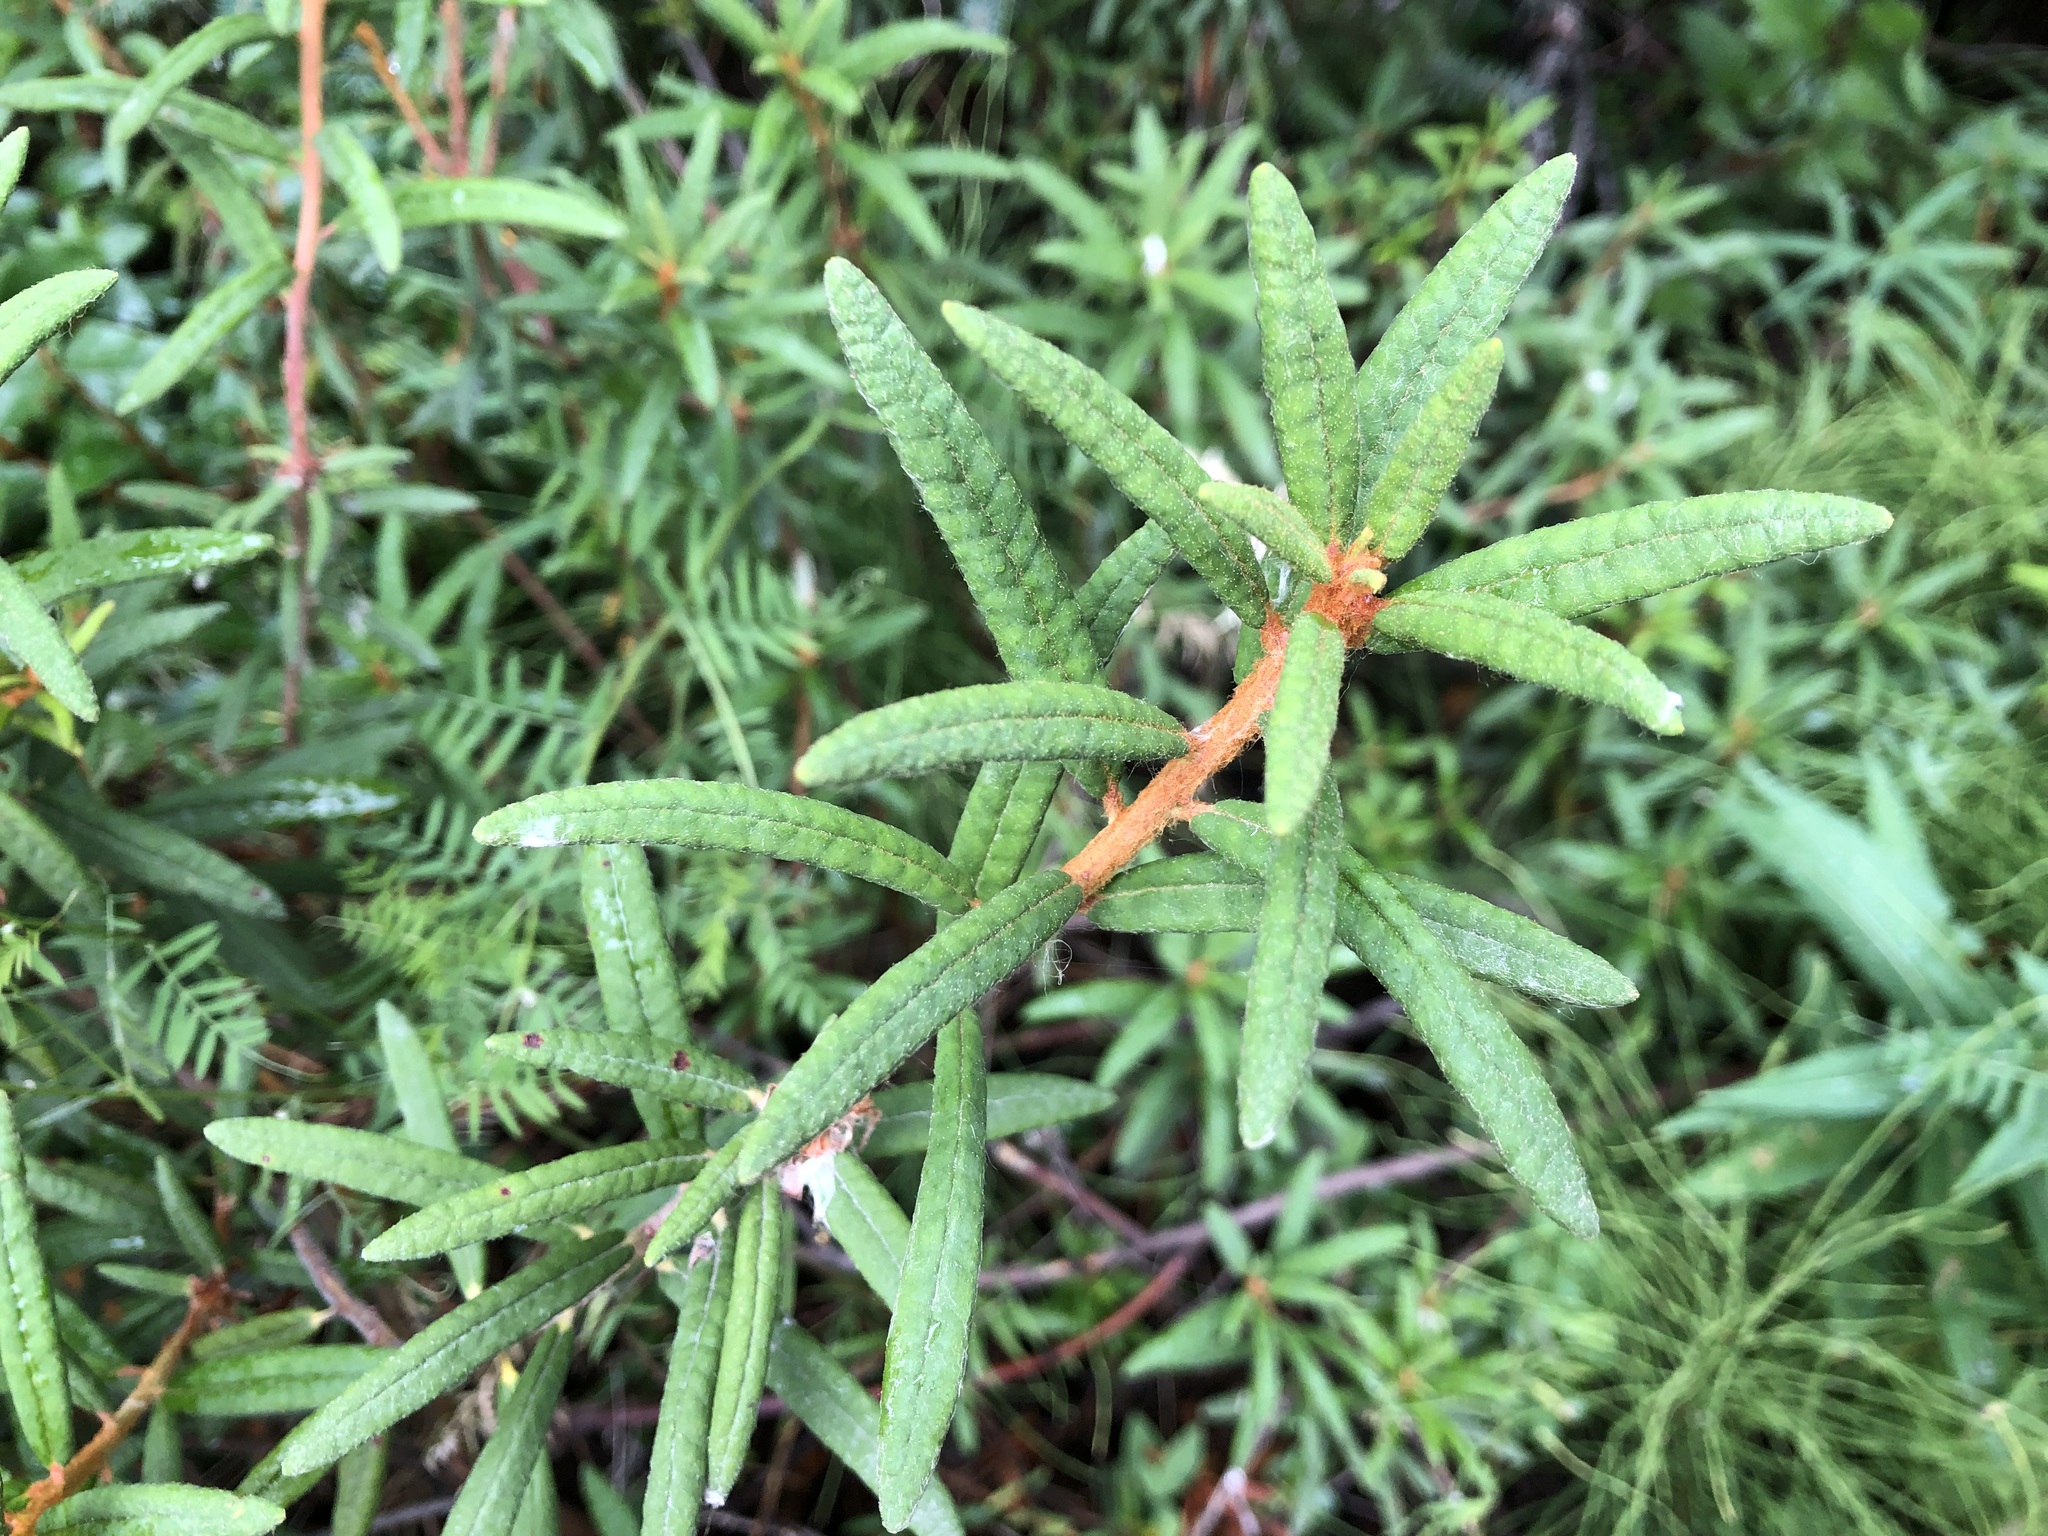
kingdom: Plantae
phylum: Tracheophyta
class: Magnoliopsida
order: Ericales
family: Ericaceae
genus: Rhododendron
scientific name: Rhododendron groenlandicum
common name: Bog labrador tea
